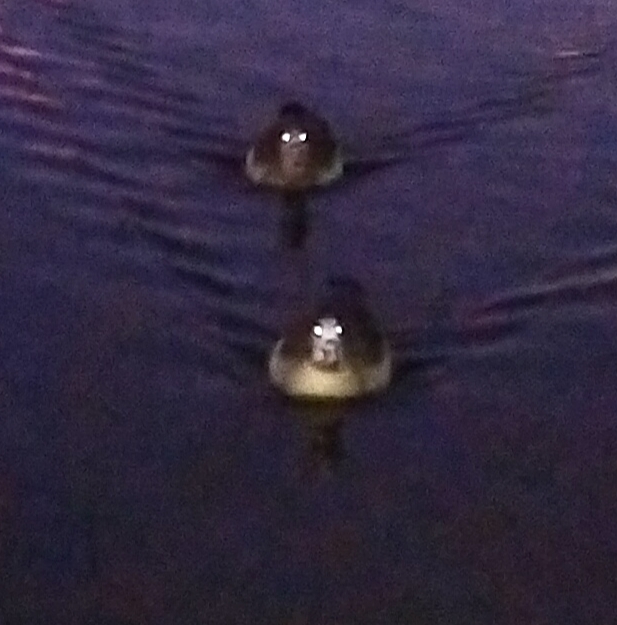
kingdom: Animalia
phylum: Chordata
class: Aves
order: Anseriformes
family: Anatidae
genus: Alopochen
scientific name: Alopochen aegyptiaca
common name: Egyptian goose
